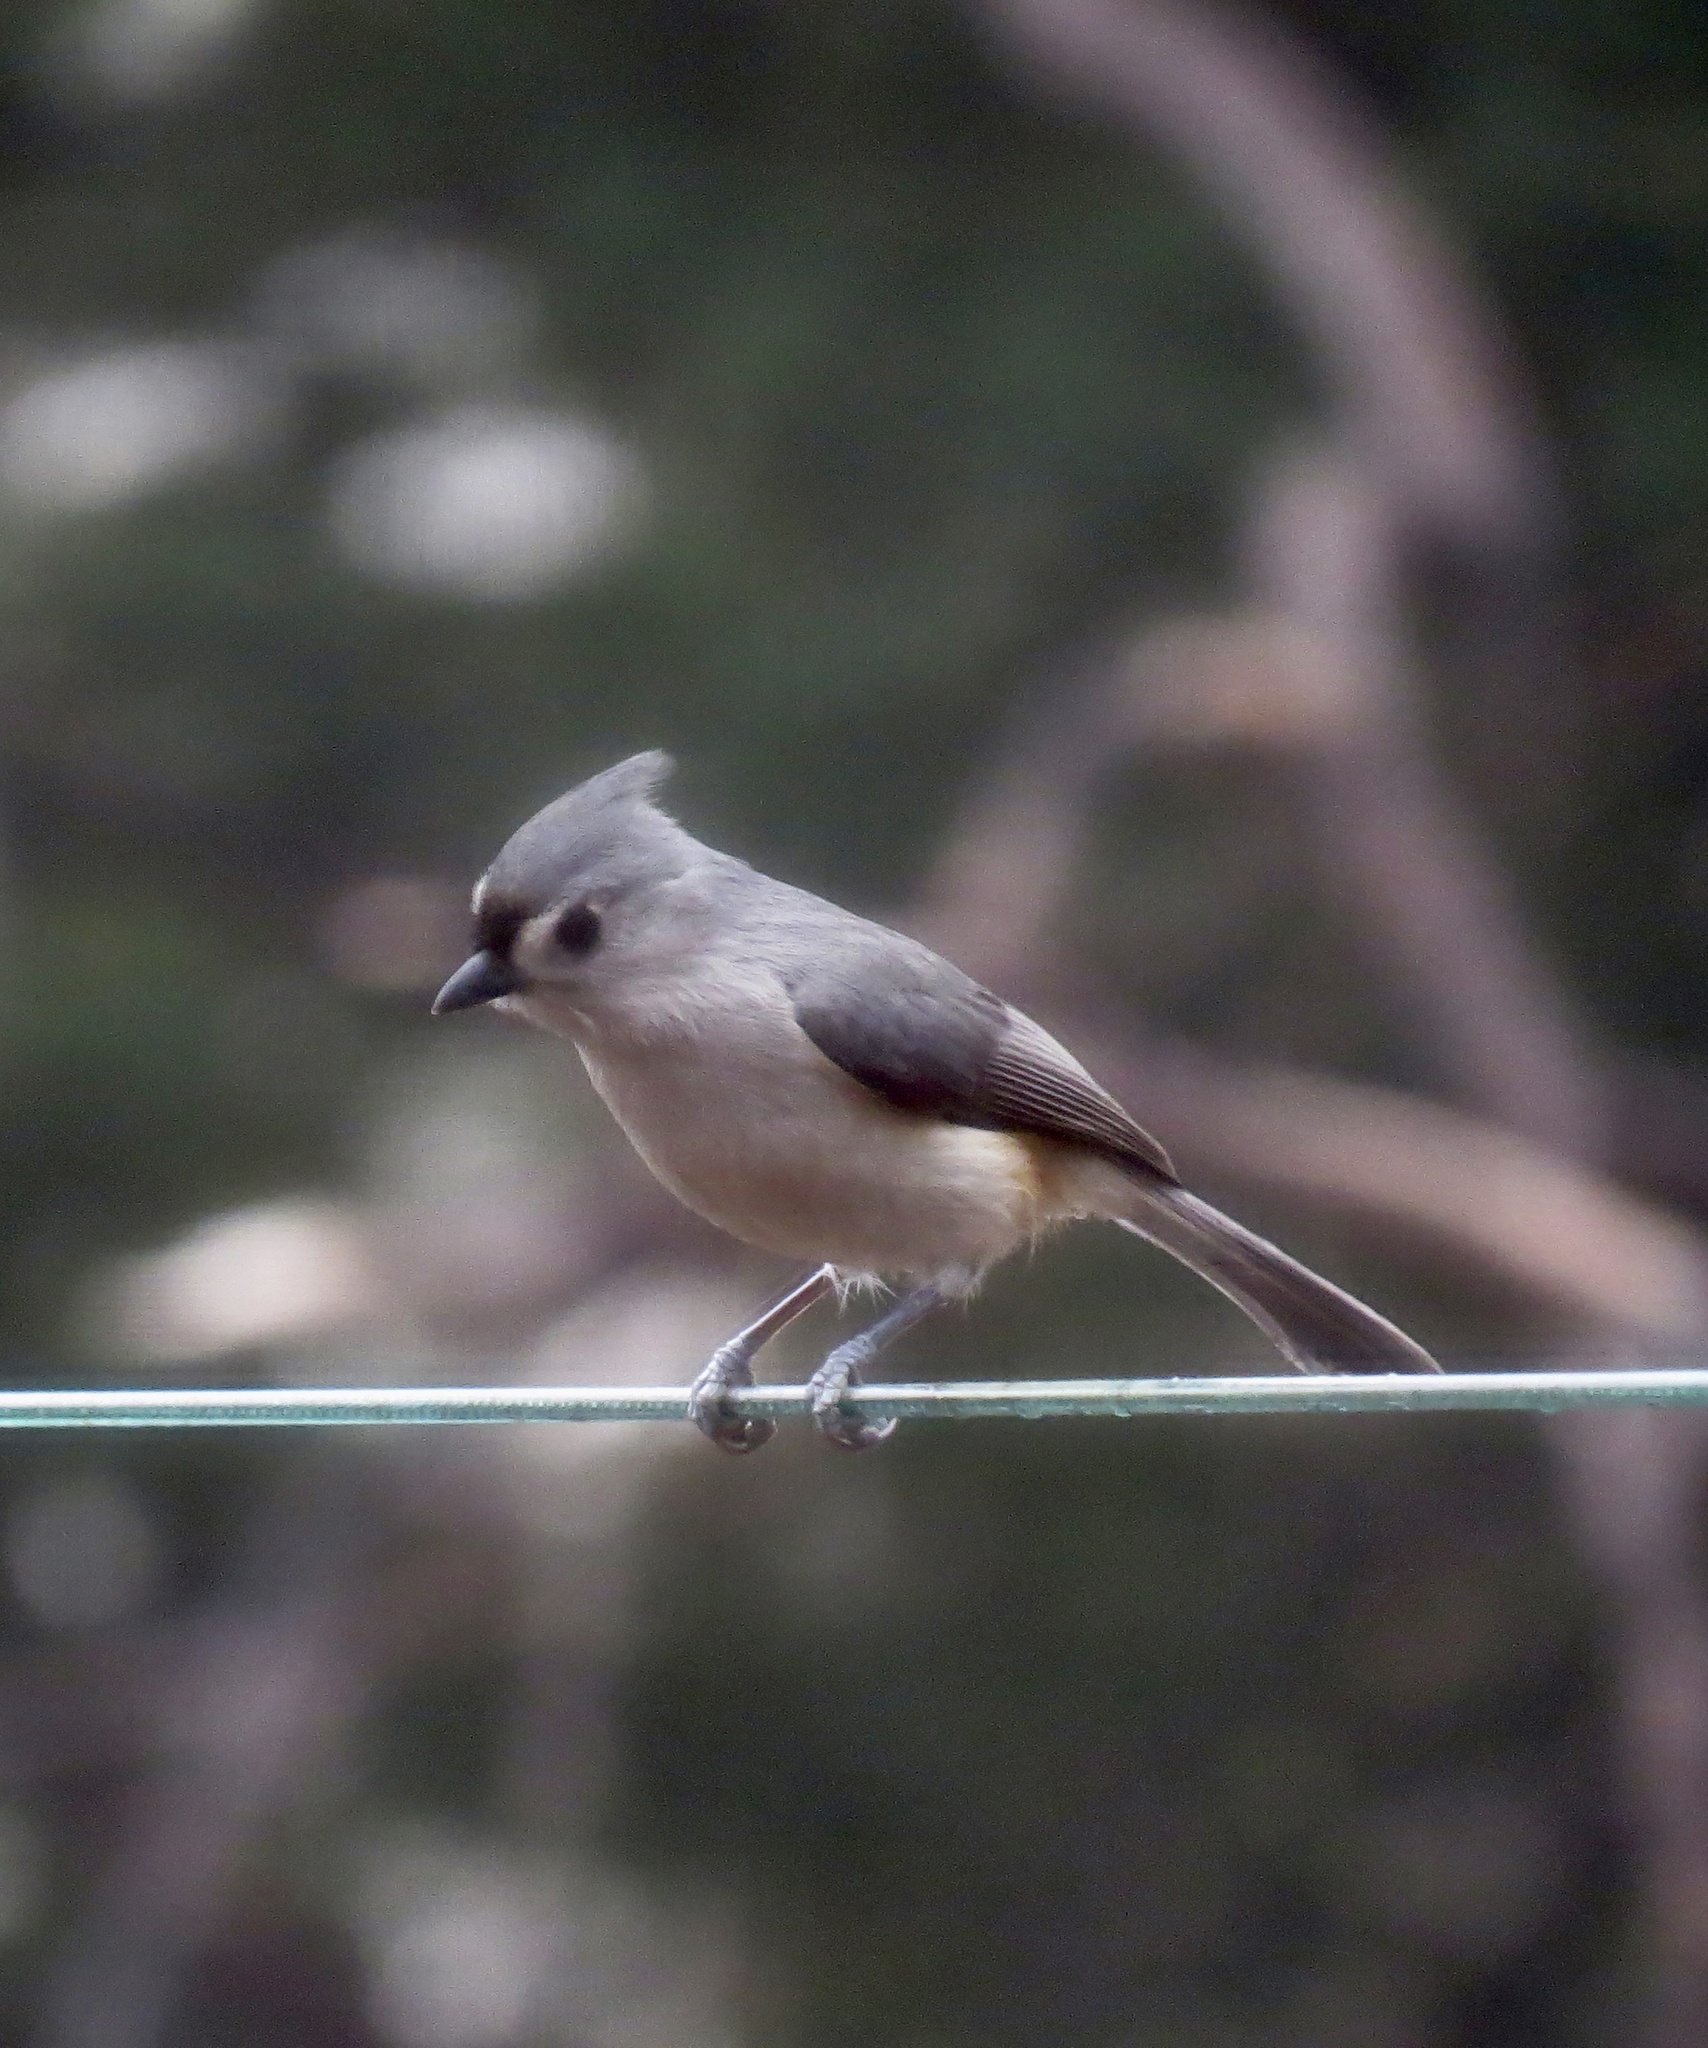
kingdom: Animalia
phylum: Chordata
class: Aves
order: Passeriformes
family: Paridae
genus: Baeolophus
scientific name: Baeolophus bicolor
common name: Tufted titmouse
